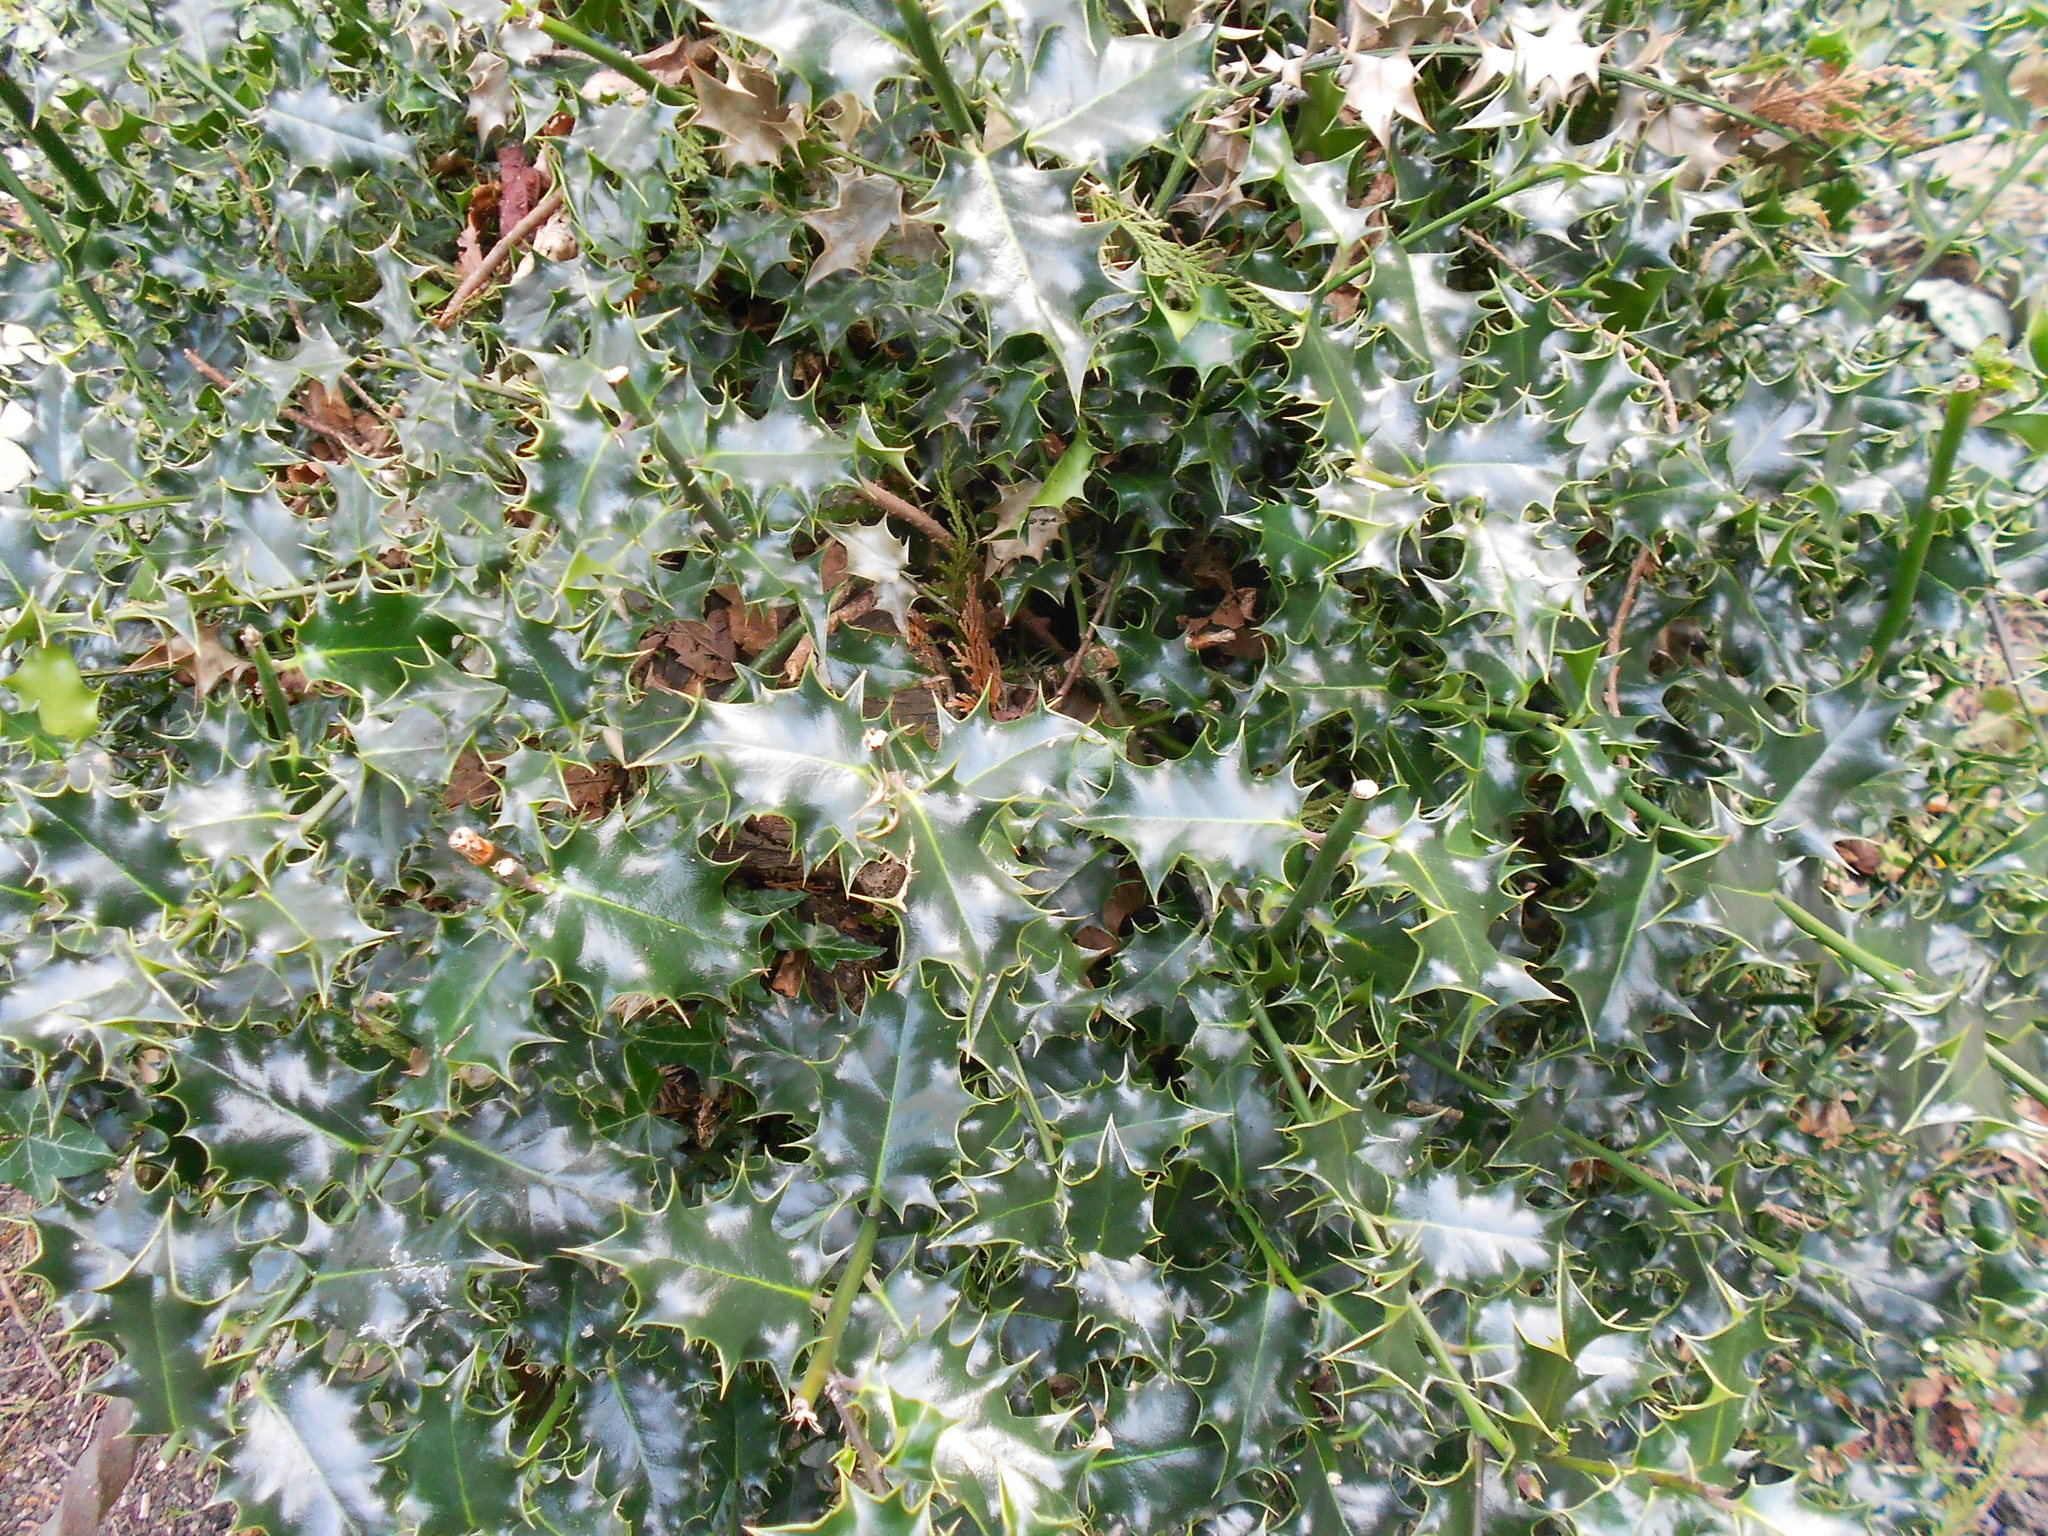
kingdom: Plantae
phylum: Tracheophyta
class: Magnoliopsida
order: Aquifoliales
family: Aquifoliaceae
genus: Ilex
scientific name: Ilex aquifolium
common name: English holly
